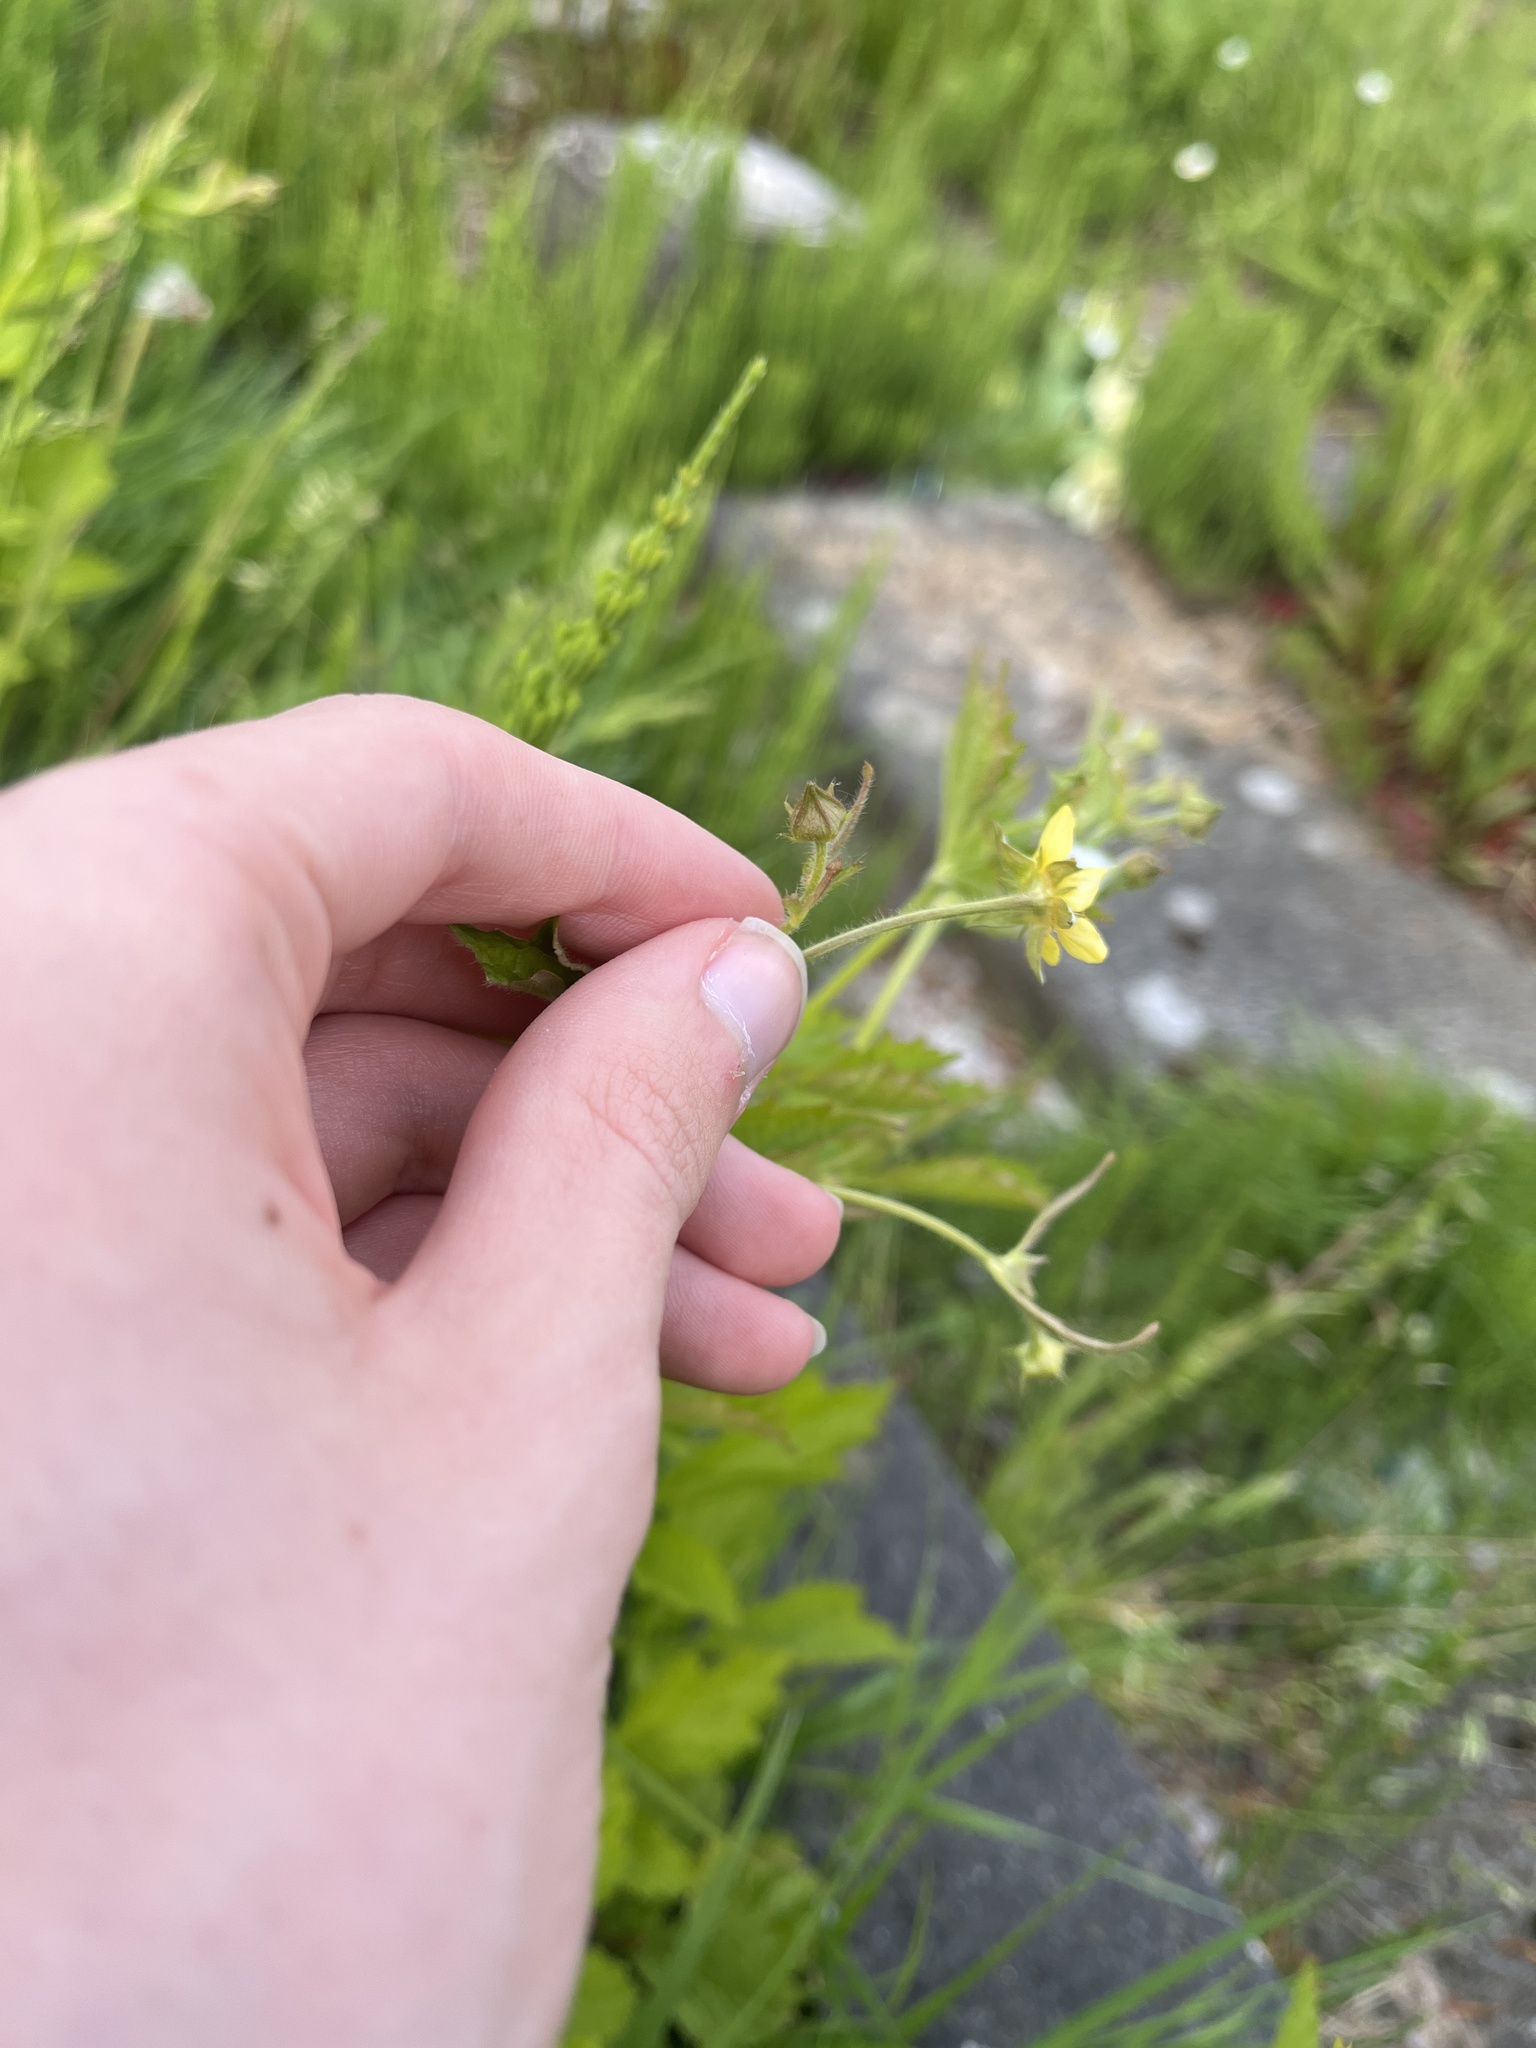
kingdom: Plantae
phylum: Tracheophyta
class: Magnoliopsida
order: Rosales
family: Rosaceae
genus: Geum
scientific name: Geum urbanum
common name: Wood avens
